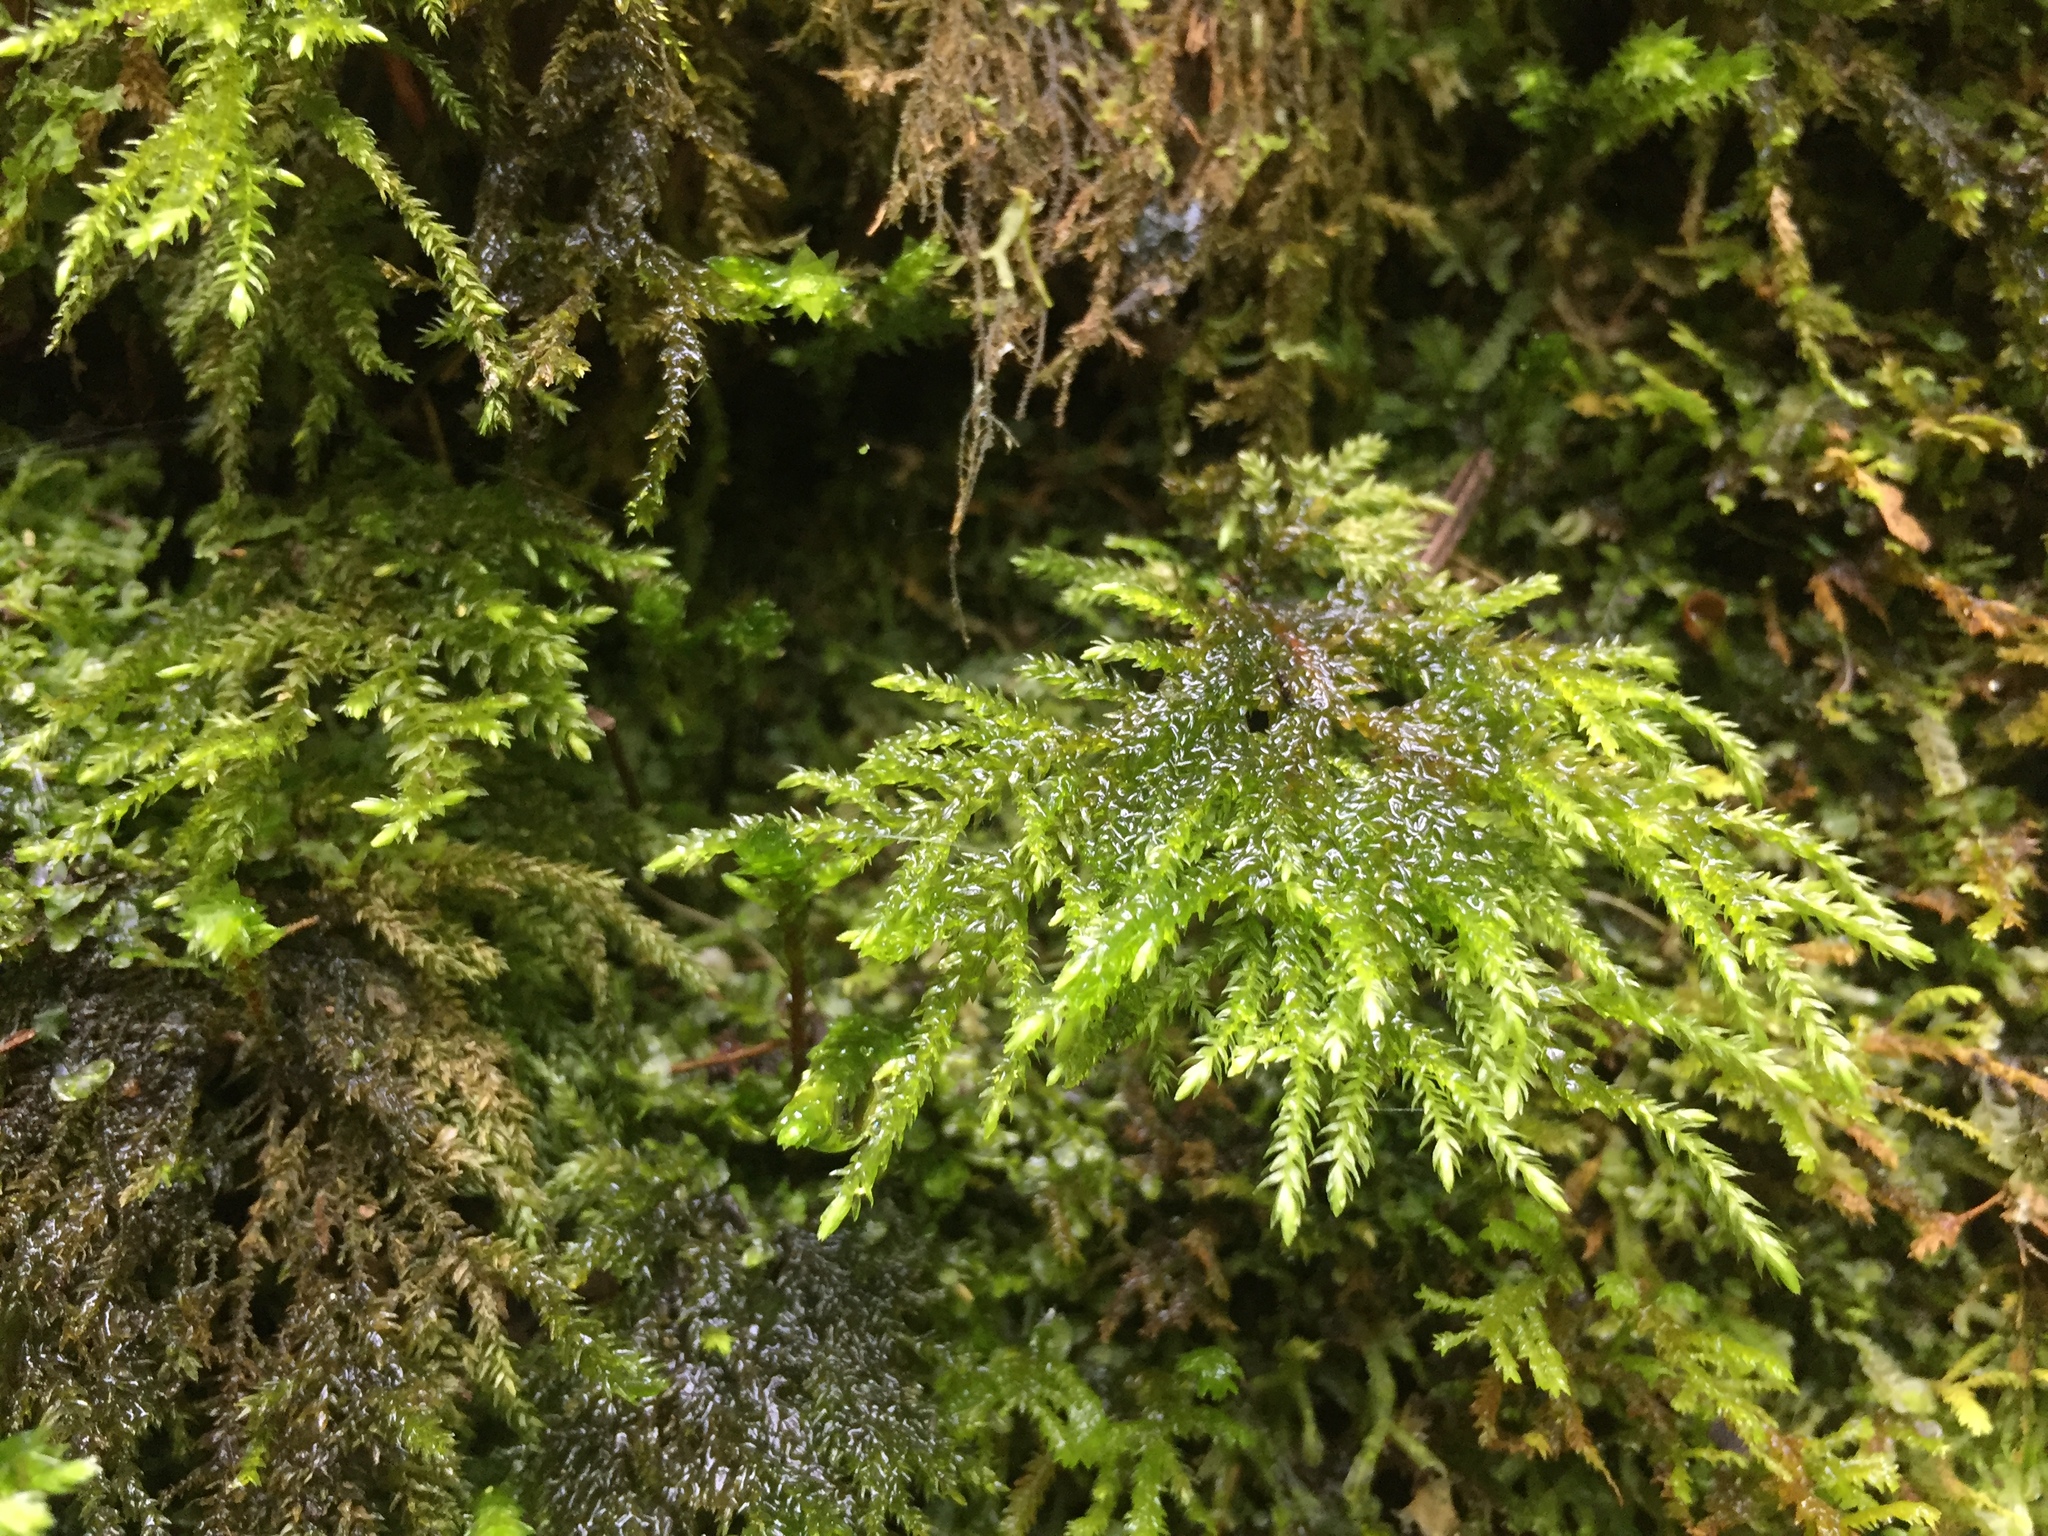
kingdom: Plantae
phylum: Bryophyta
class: Bryopsida
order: Hypnales
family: Neckeraceae
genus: Thamnobryum
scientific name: Thamnobryum alopecurum
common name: Fox-tail feather-moss
